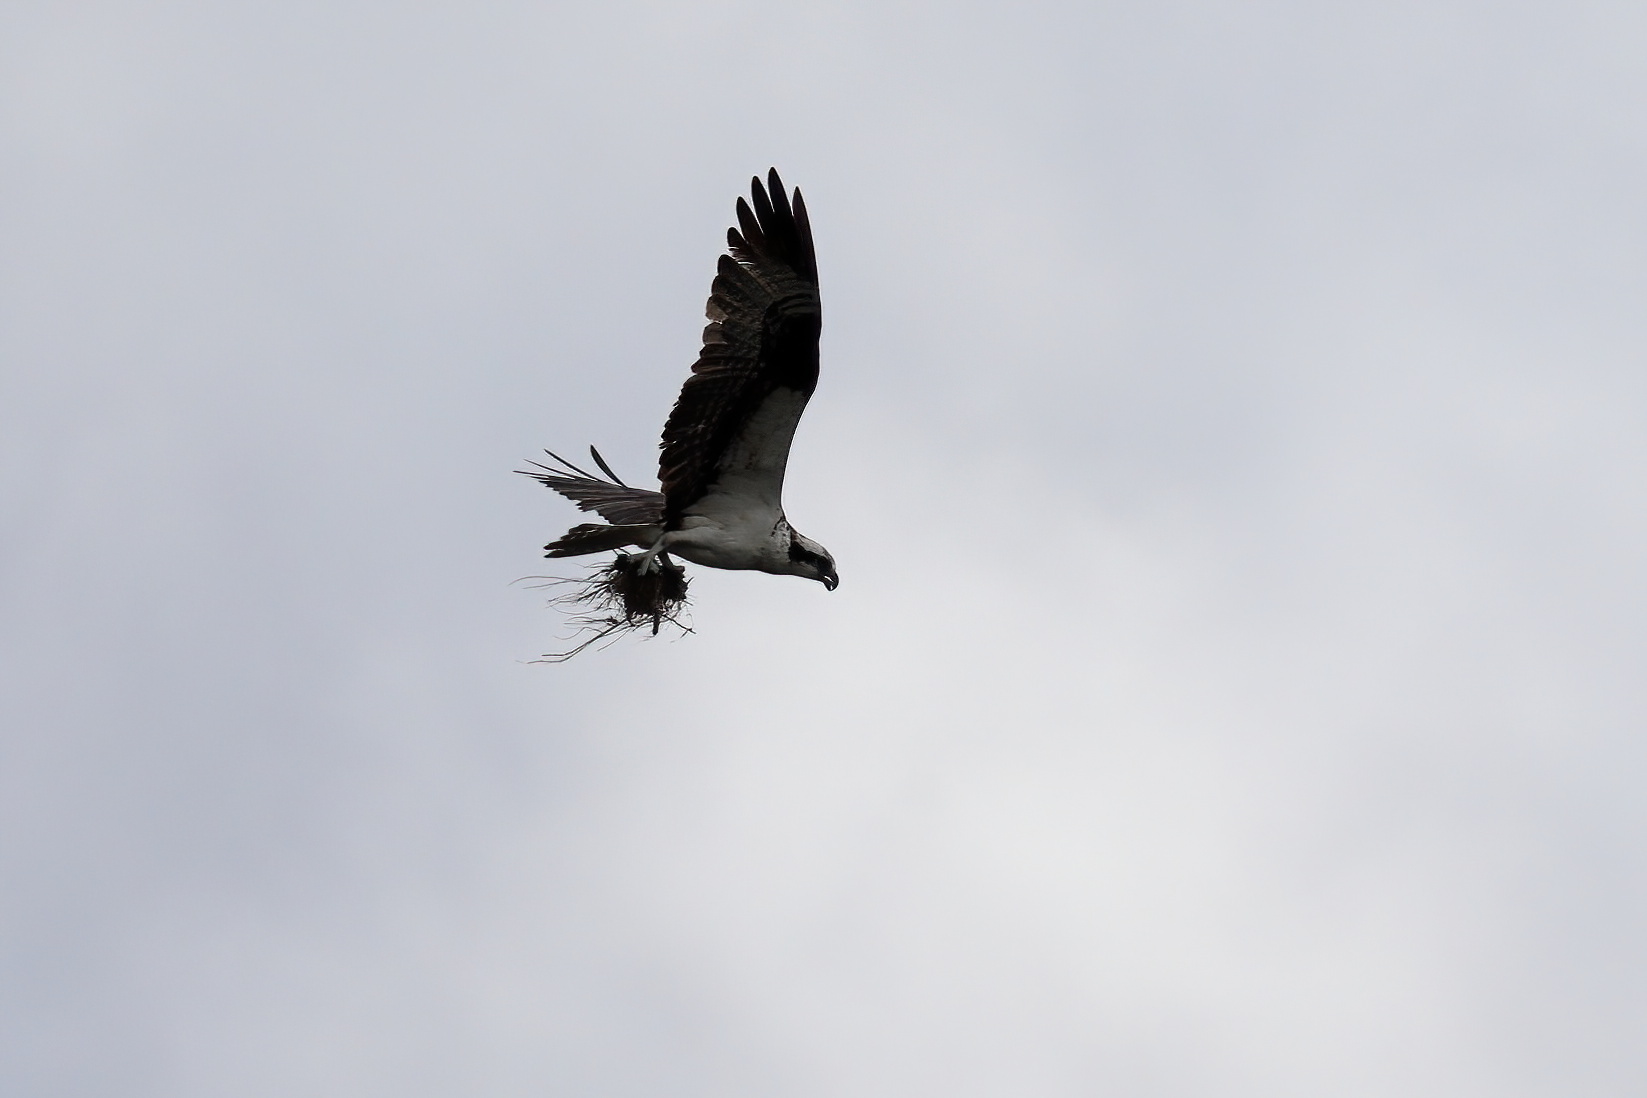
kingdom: Animalia
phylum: Chordata
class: Aves
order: Accipitriformes
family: Pandionidae
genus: Pandion
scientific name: Pandion haliaetus
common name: Osprey
